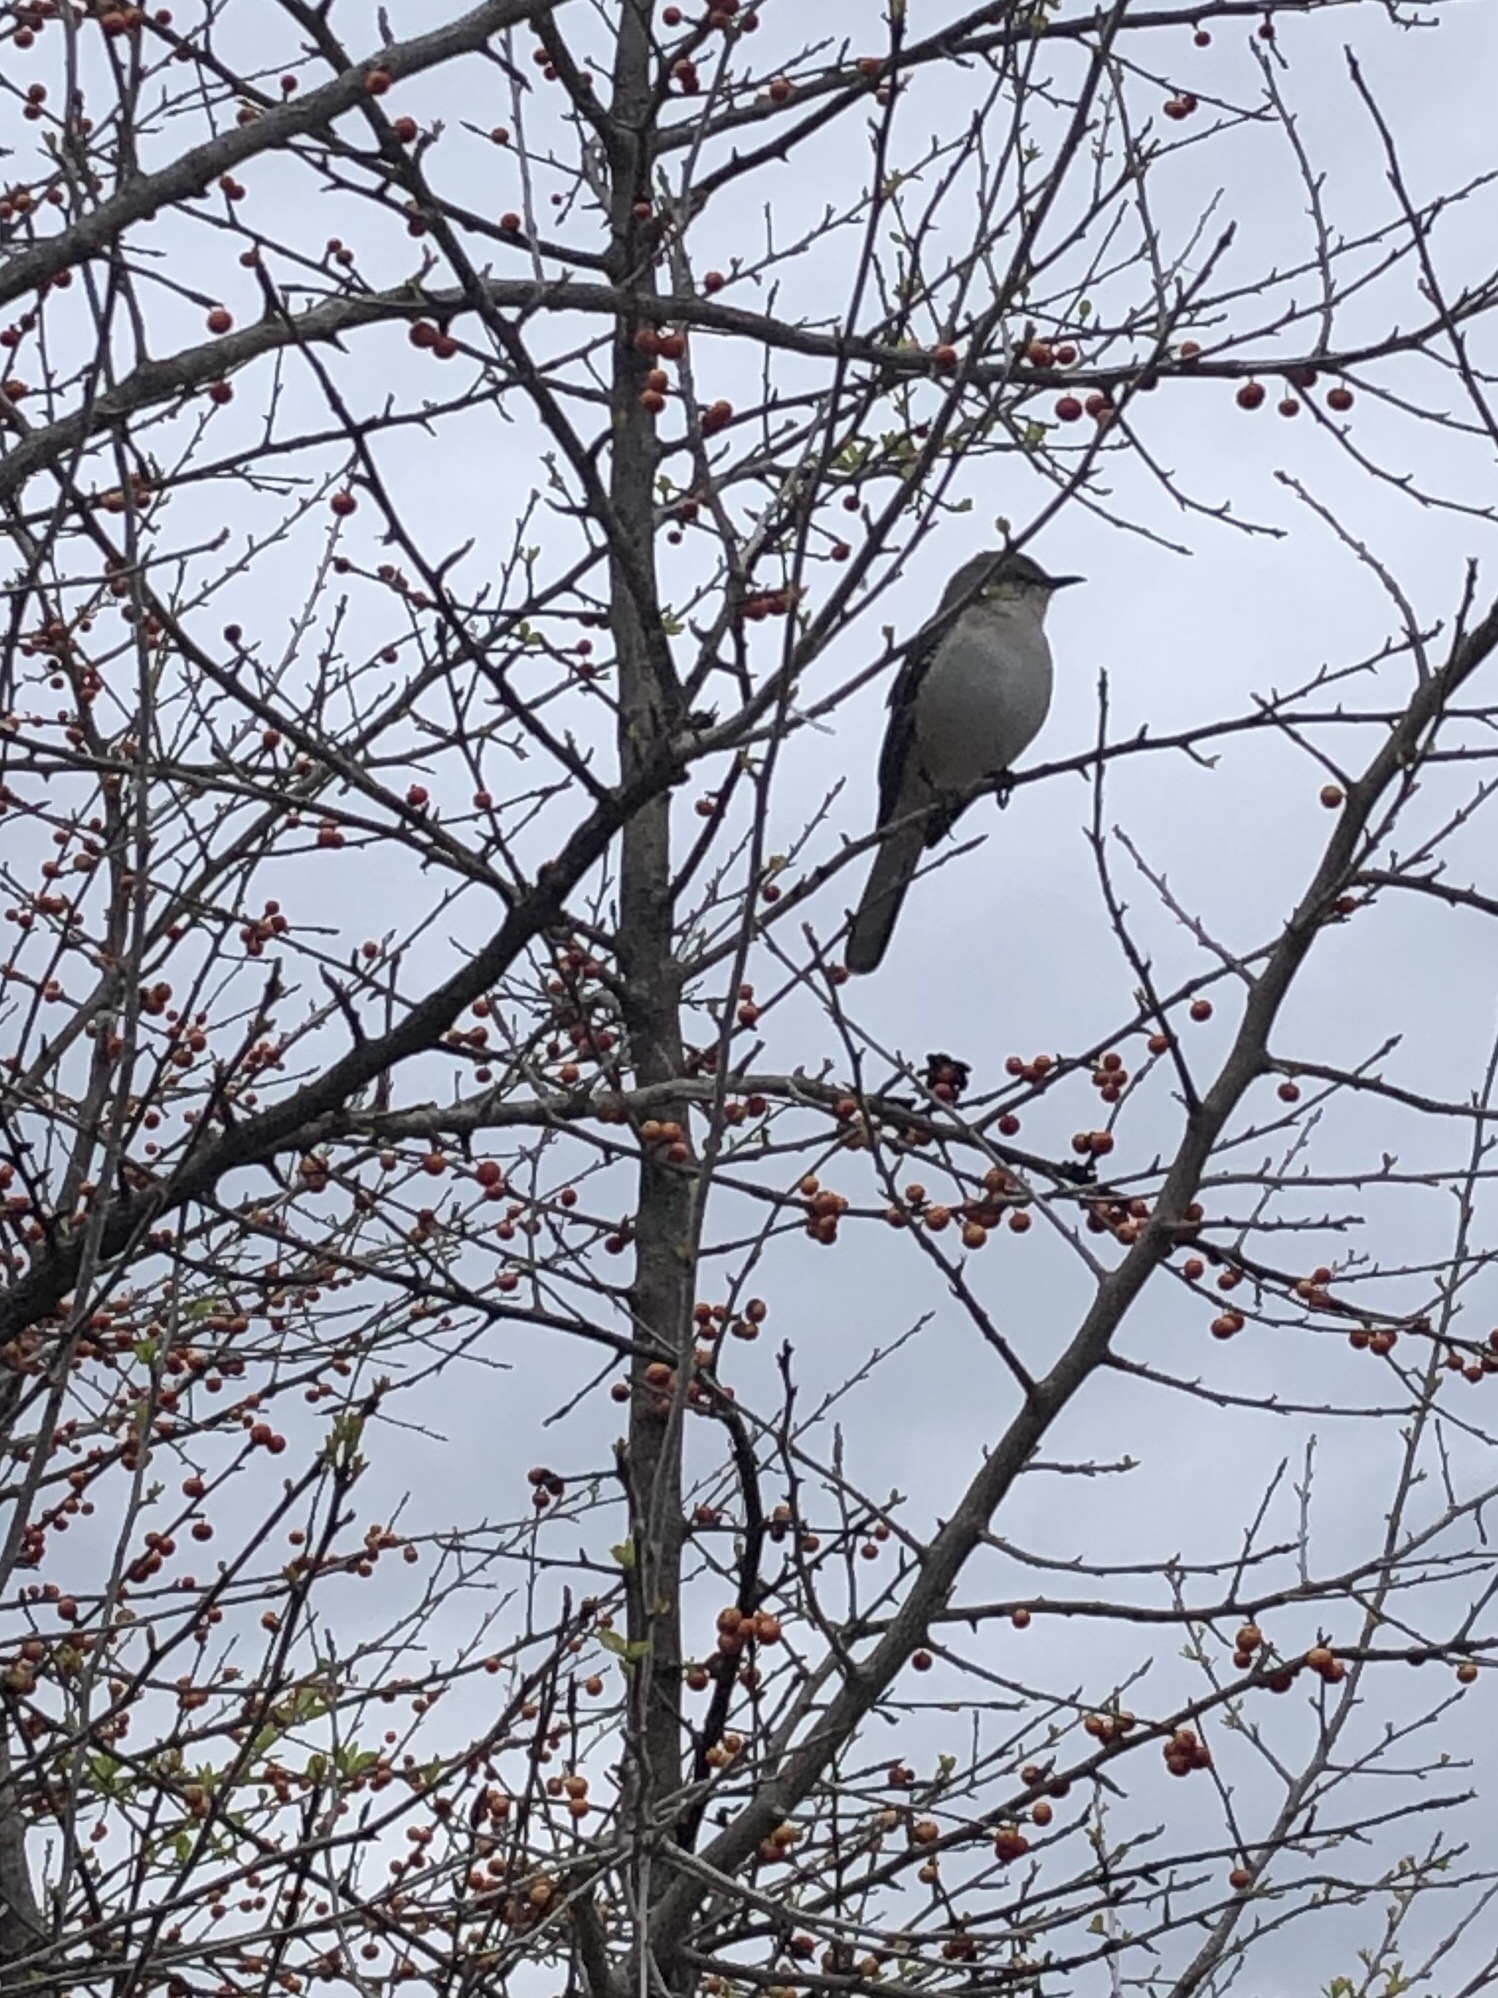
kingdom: Animalia
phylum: Chordata
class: Aves
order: Passeriformes
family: Mimidae
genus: Mimus
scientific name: Mimus polyglottos
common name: Northern mockingbird
